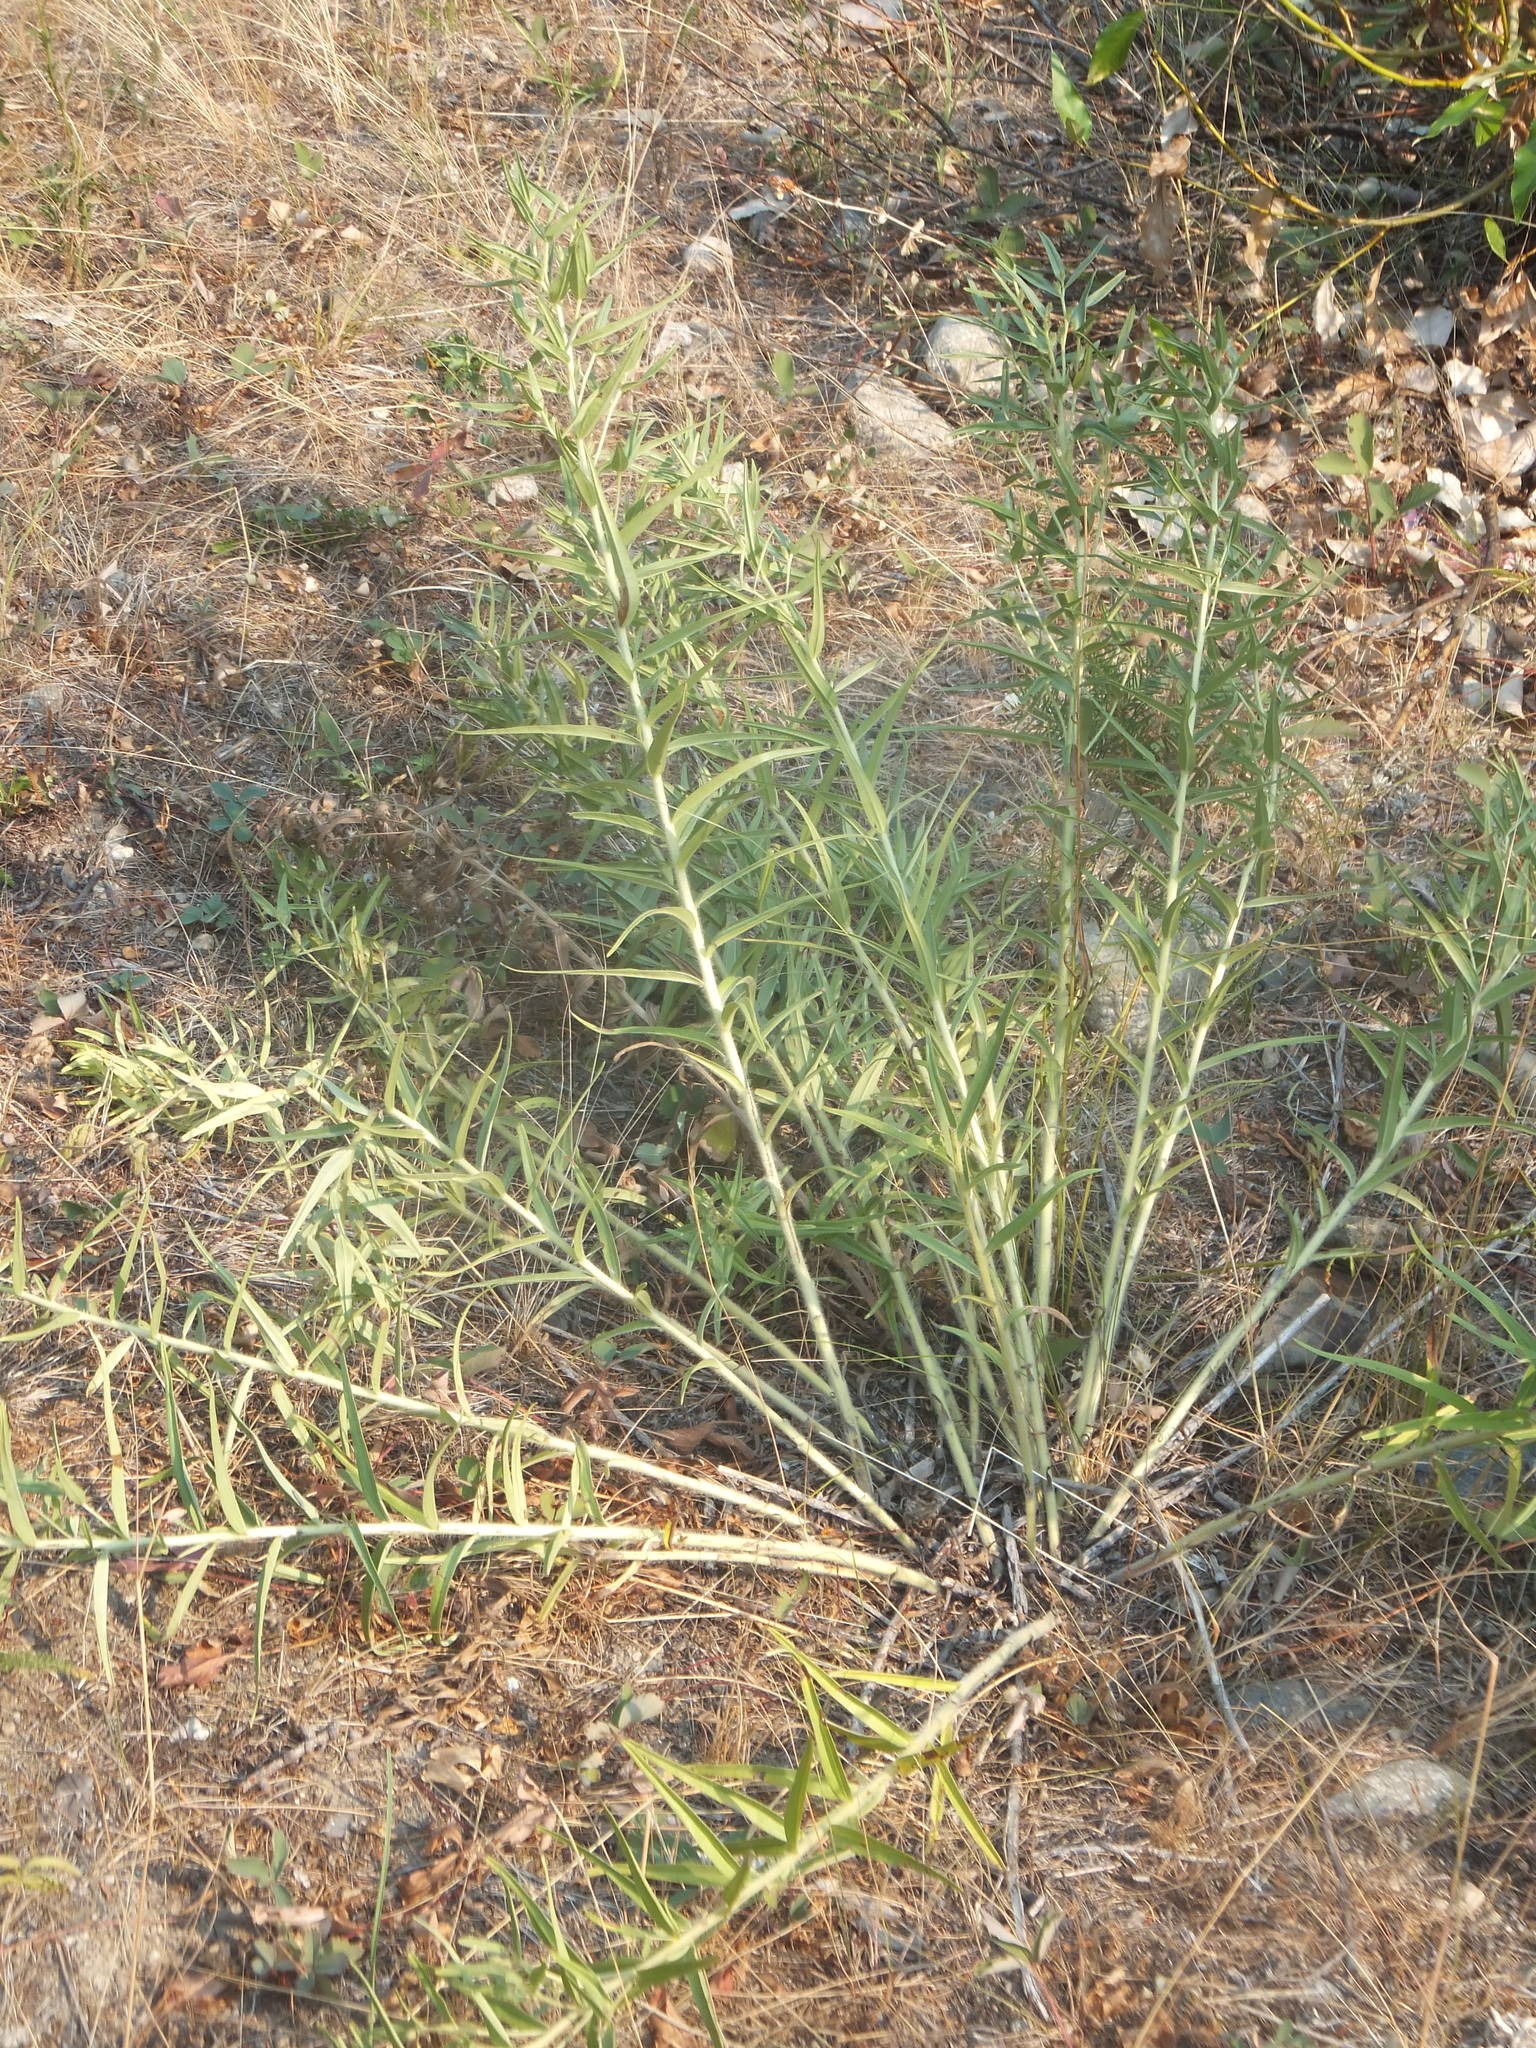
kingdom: Plantae
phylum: Tracheophyta
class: Magnoliopsida
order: Boraginales
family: Boraginaceae
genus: Lithospermum
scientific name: Lithospermum ruderale
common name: Western gromwell
